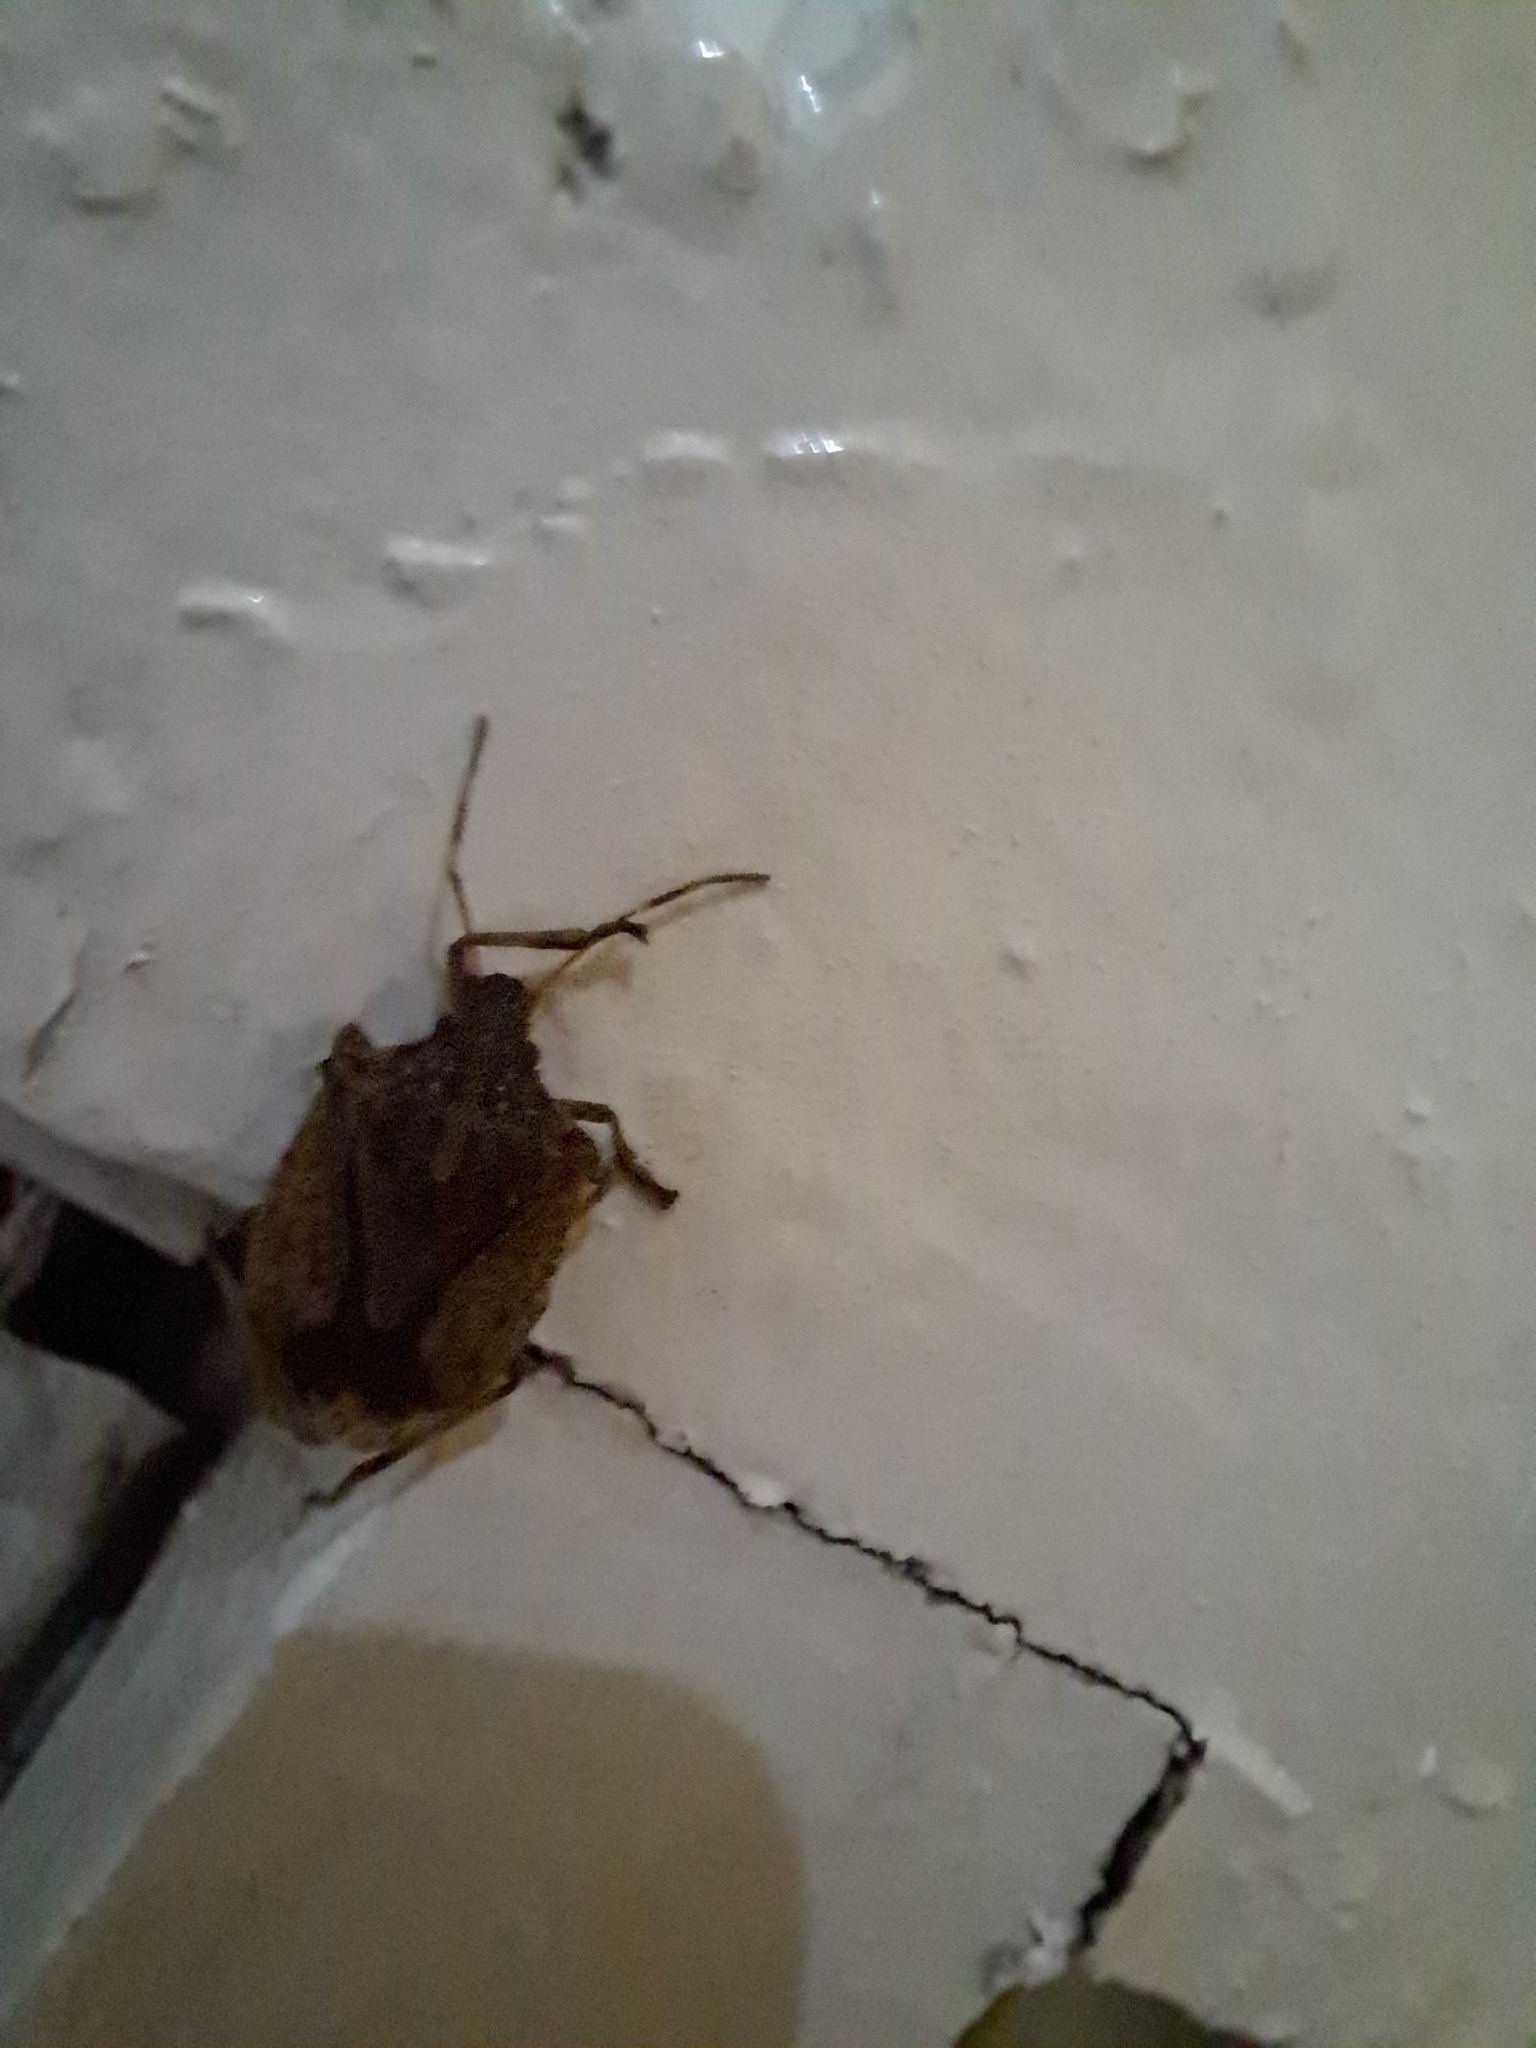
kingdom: Animalia
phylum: Arthropoda
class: Insecta
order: Hemiptera
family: Pentatomidae
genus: Halyomorpha
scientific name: Halyomorpha halys
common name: Brown marmorated stink bug
